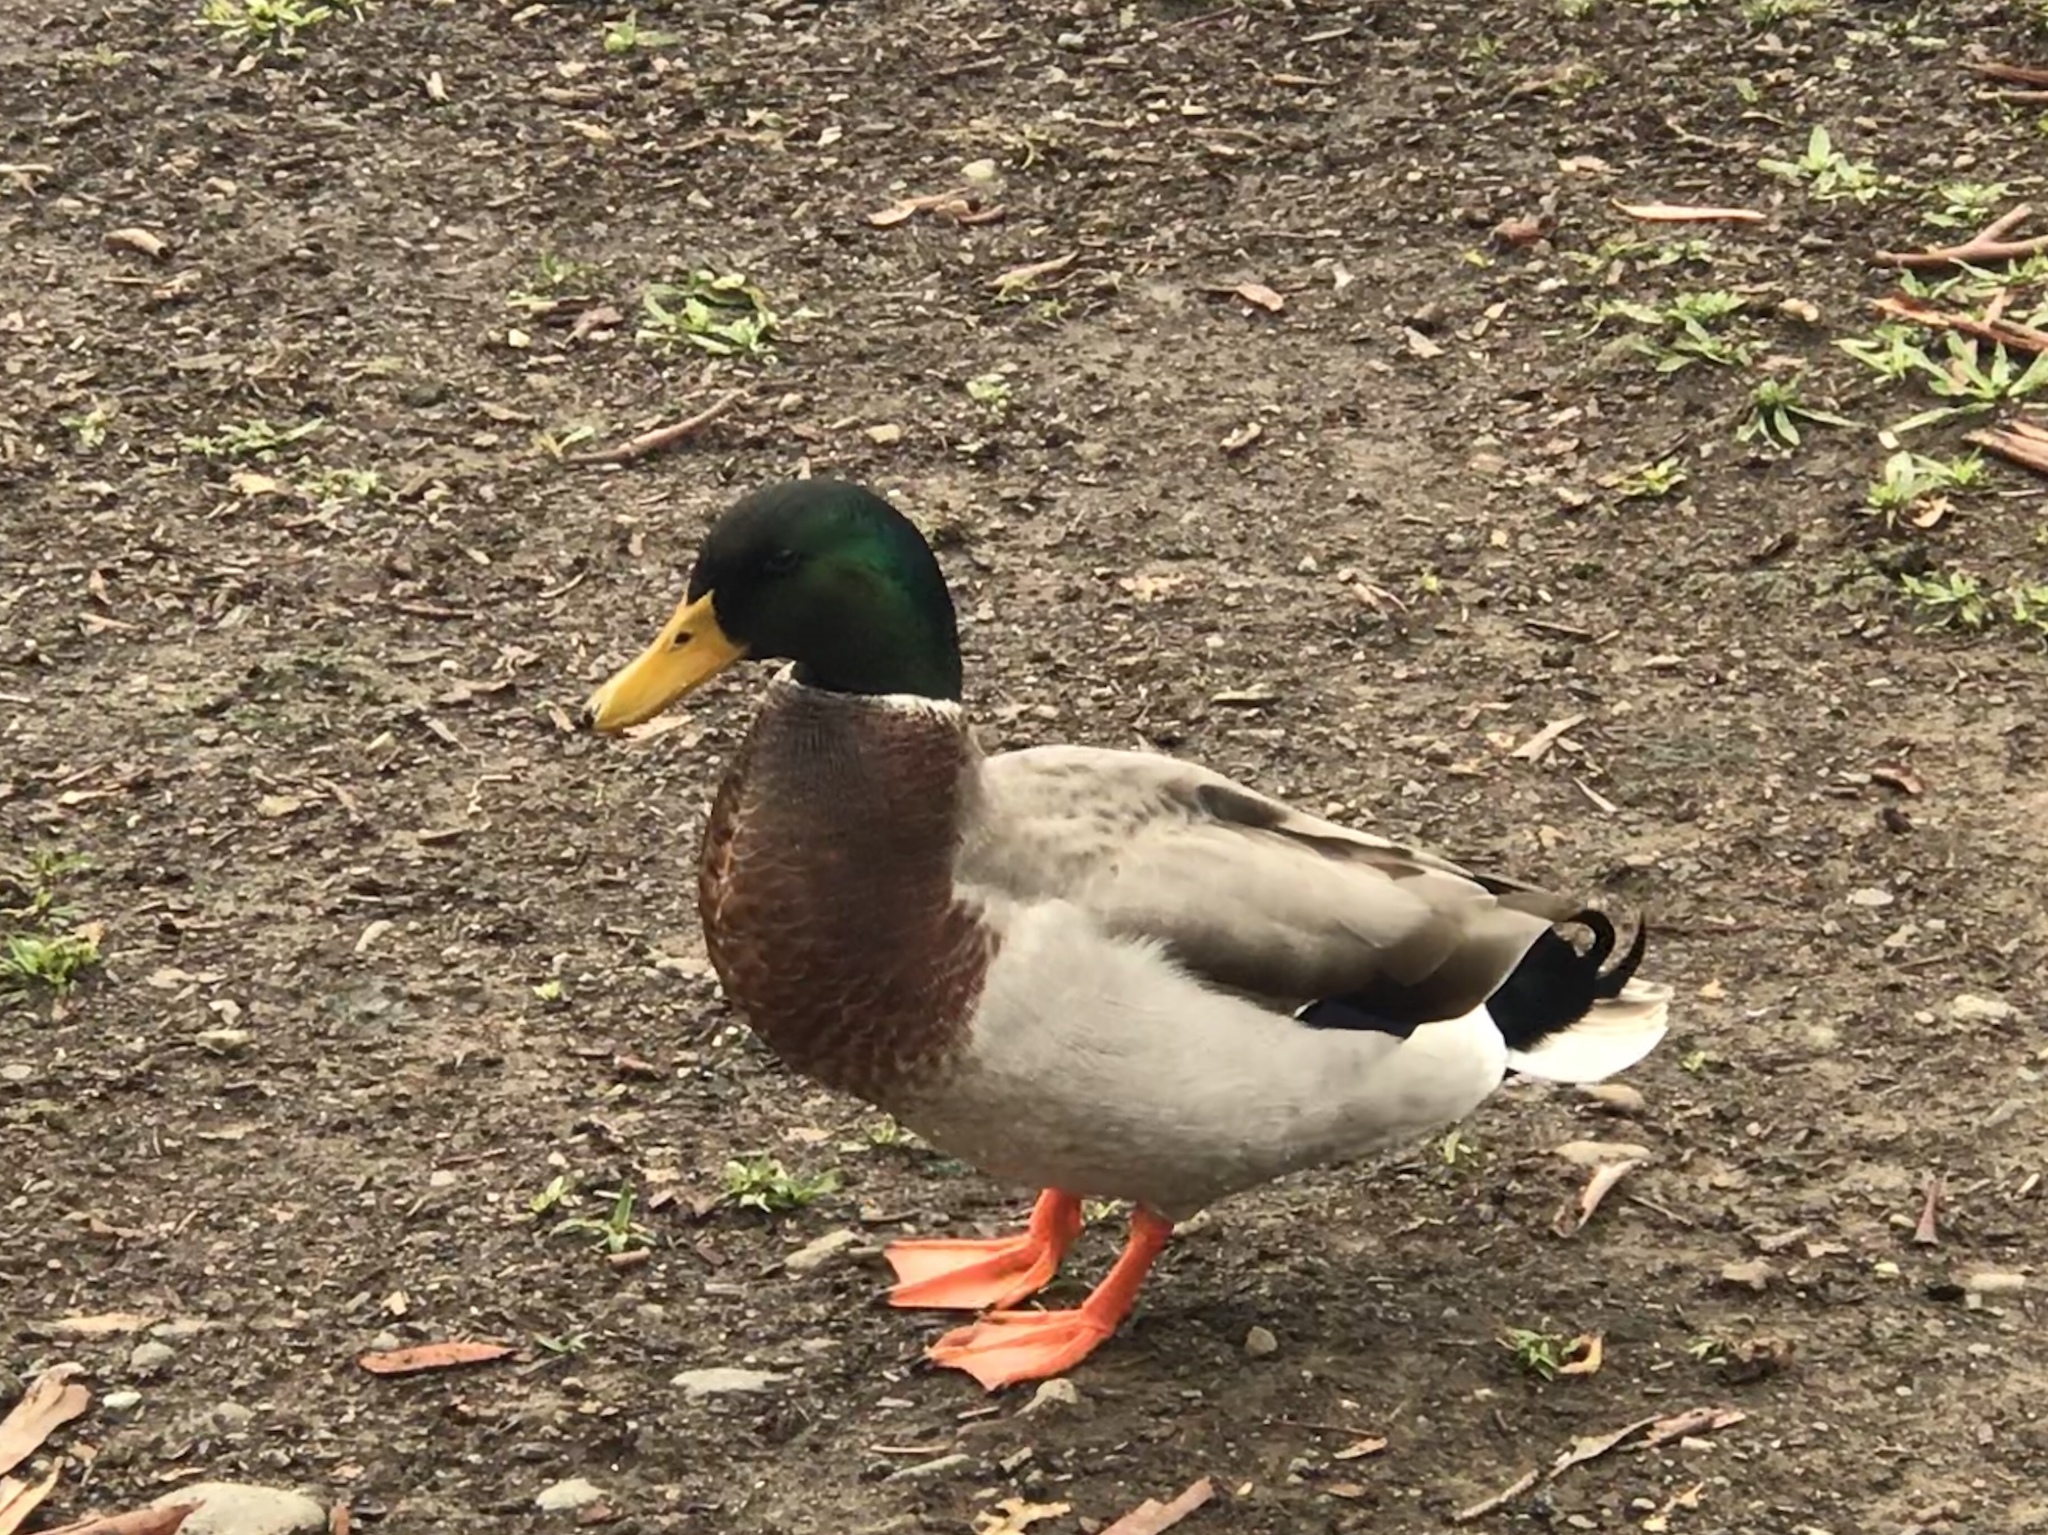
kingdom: Animalia
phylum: Chordata
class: Aves
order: Anseriformes
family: Anatidae
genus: Anas
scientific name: Anas platyrhynchos
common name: Mallard
